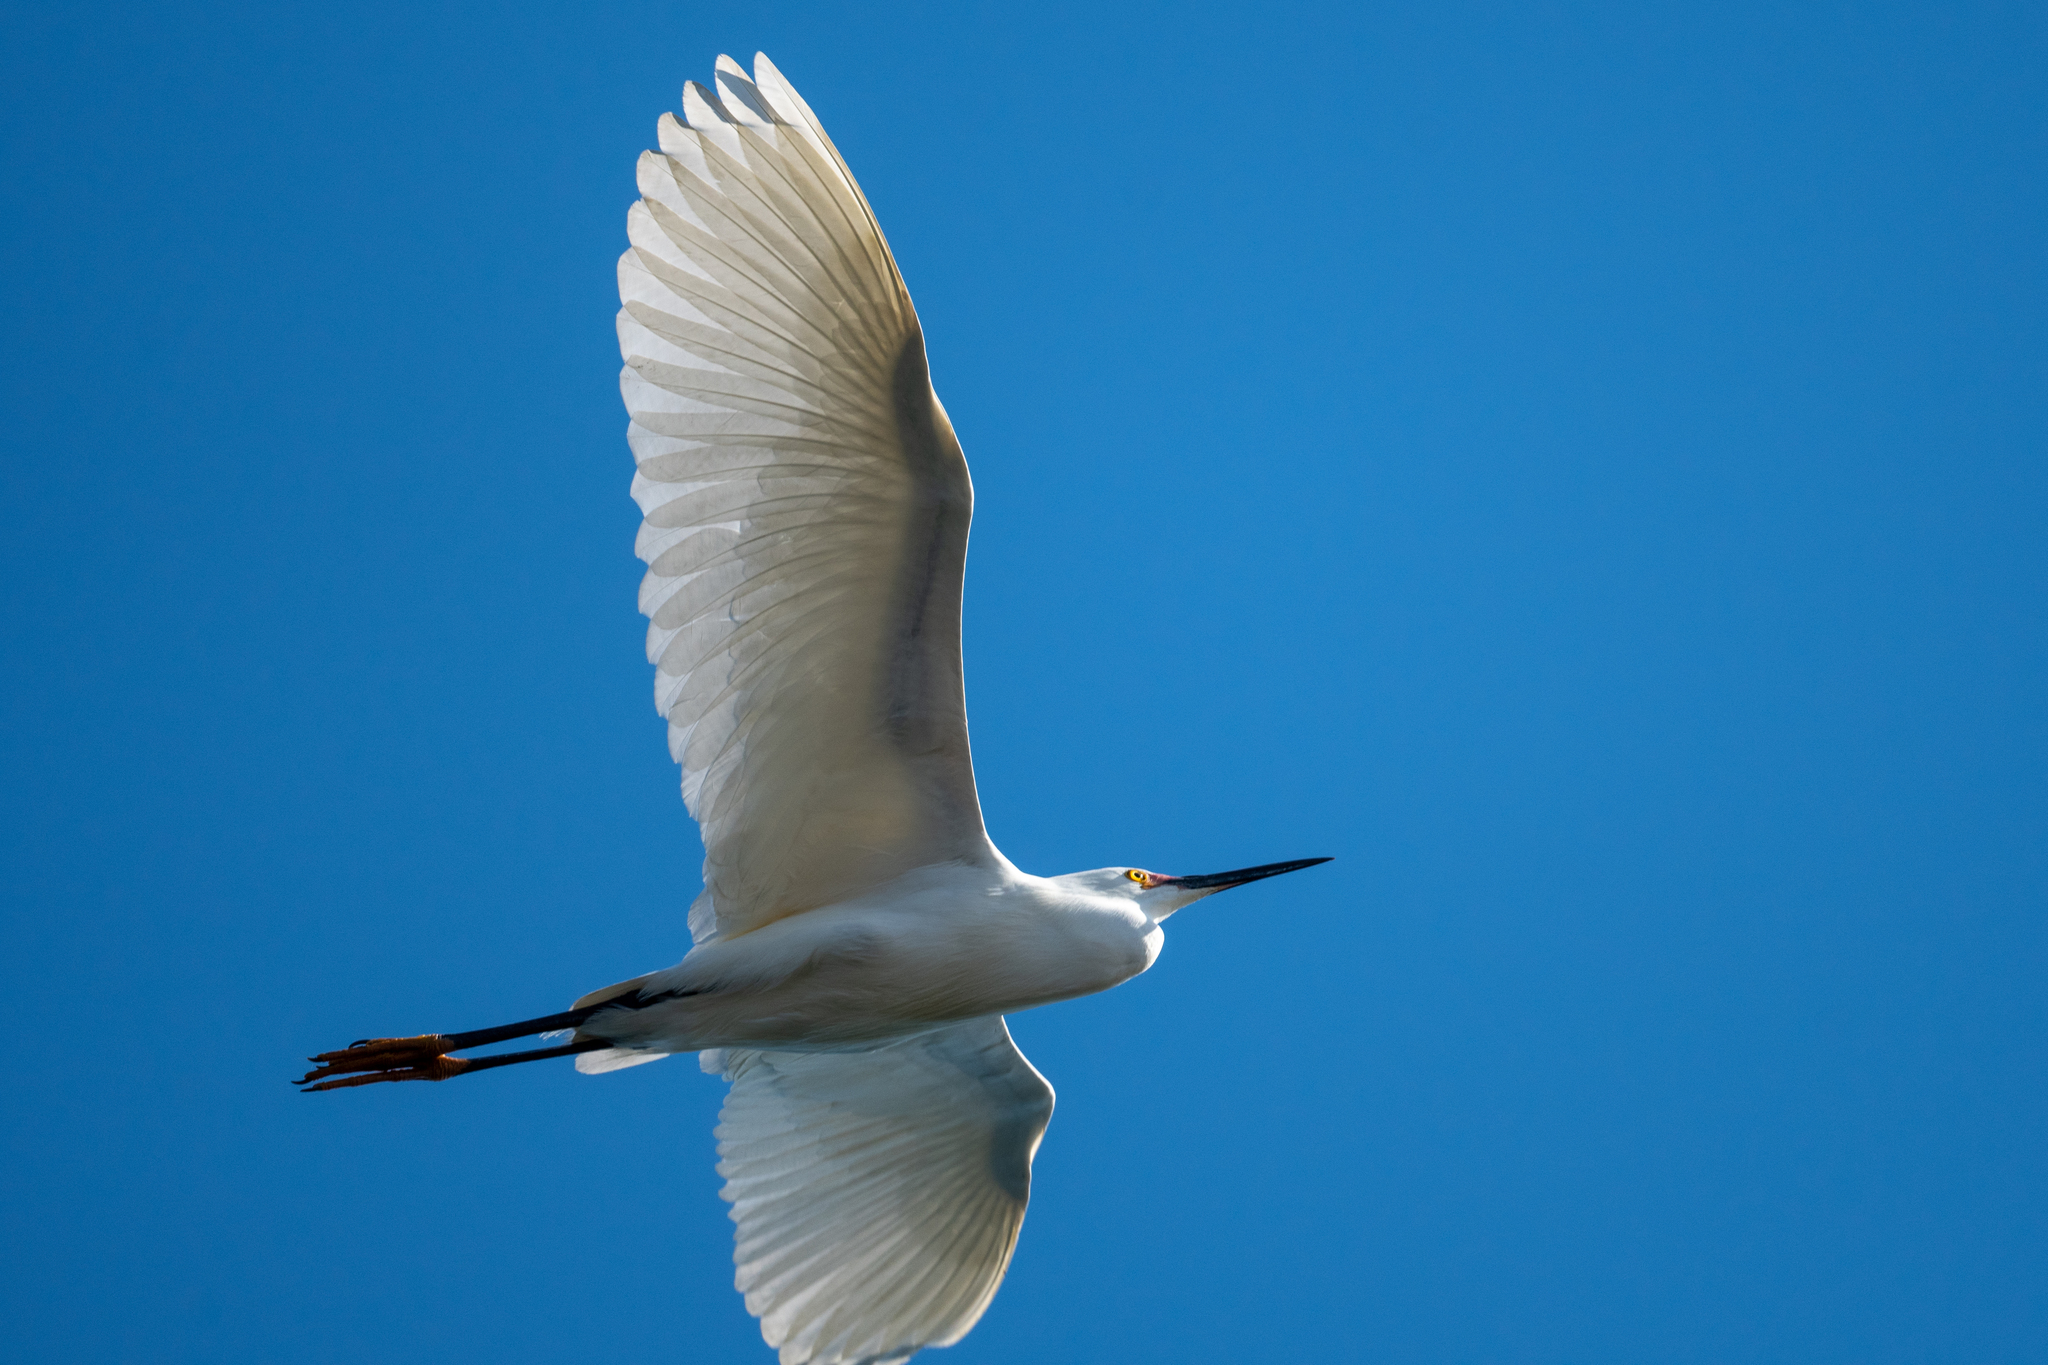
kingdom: Animalia
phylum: Chordata
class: Aves
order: Pelecaniformes
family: Ardeidae
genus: Egretta
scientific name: Egretta thula
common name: Snowy egret
